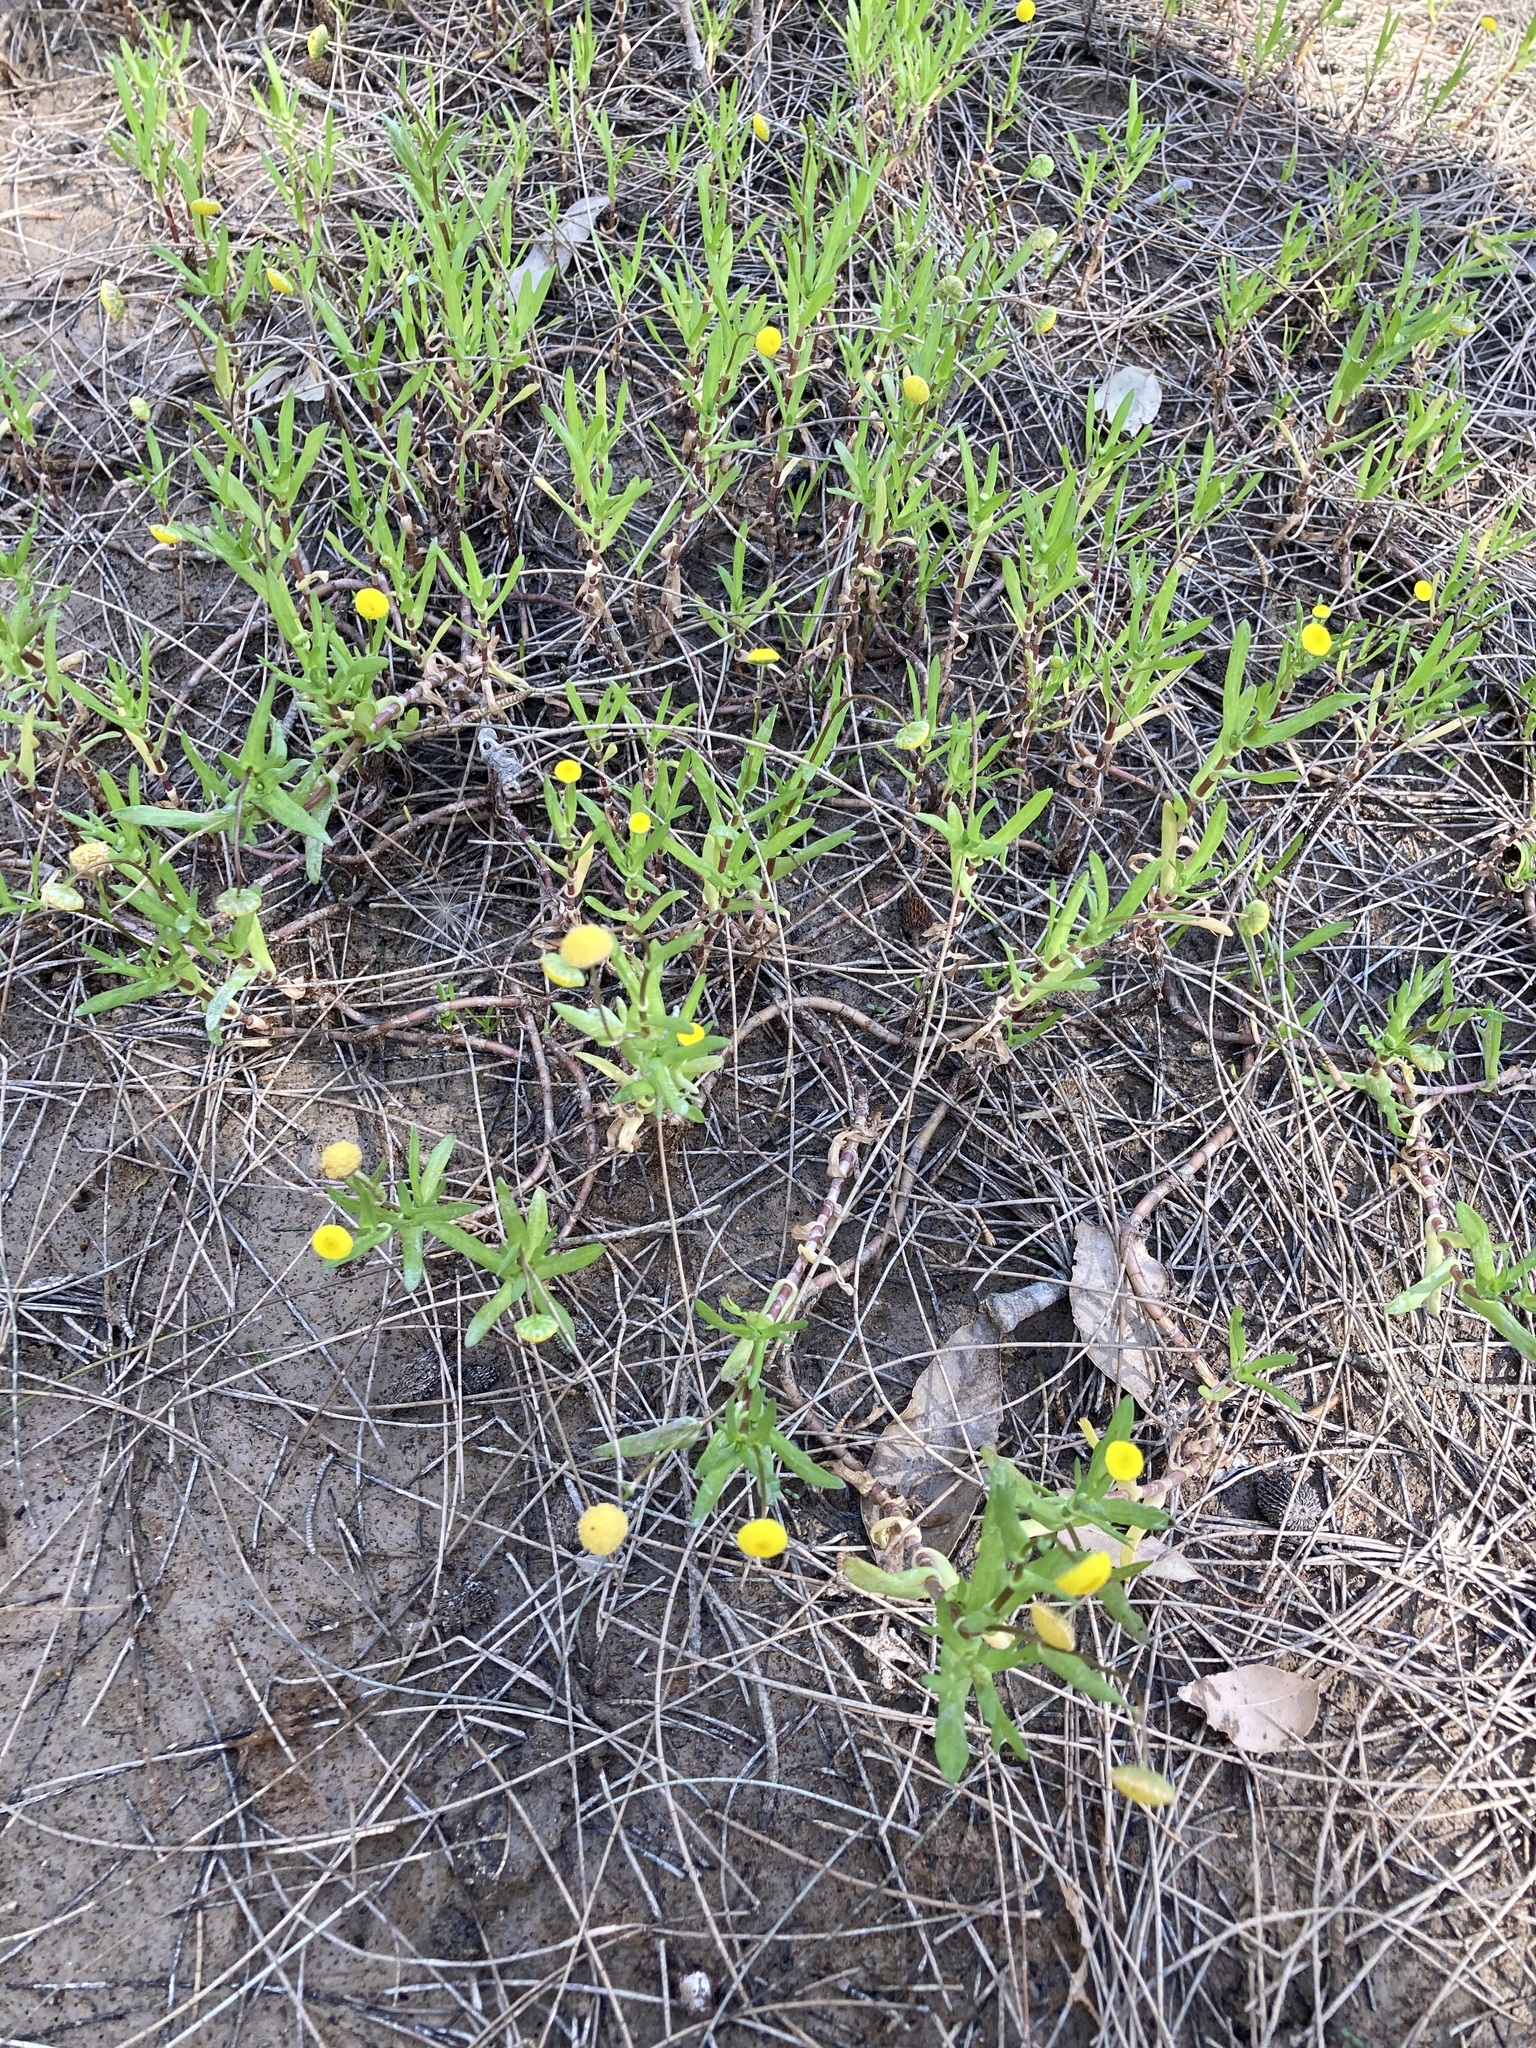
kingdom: Plantae
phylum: Tracheophyta
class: Magnoliopsida
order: Asterales
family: Asteraceae
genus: Cotula
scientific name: Cotula coronopifolia
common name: Buttonweed
